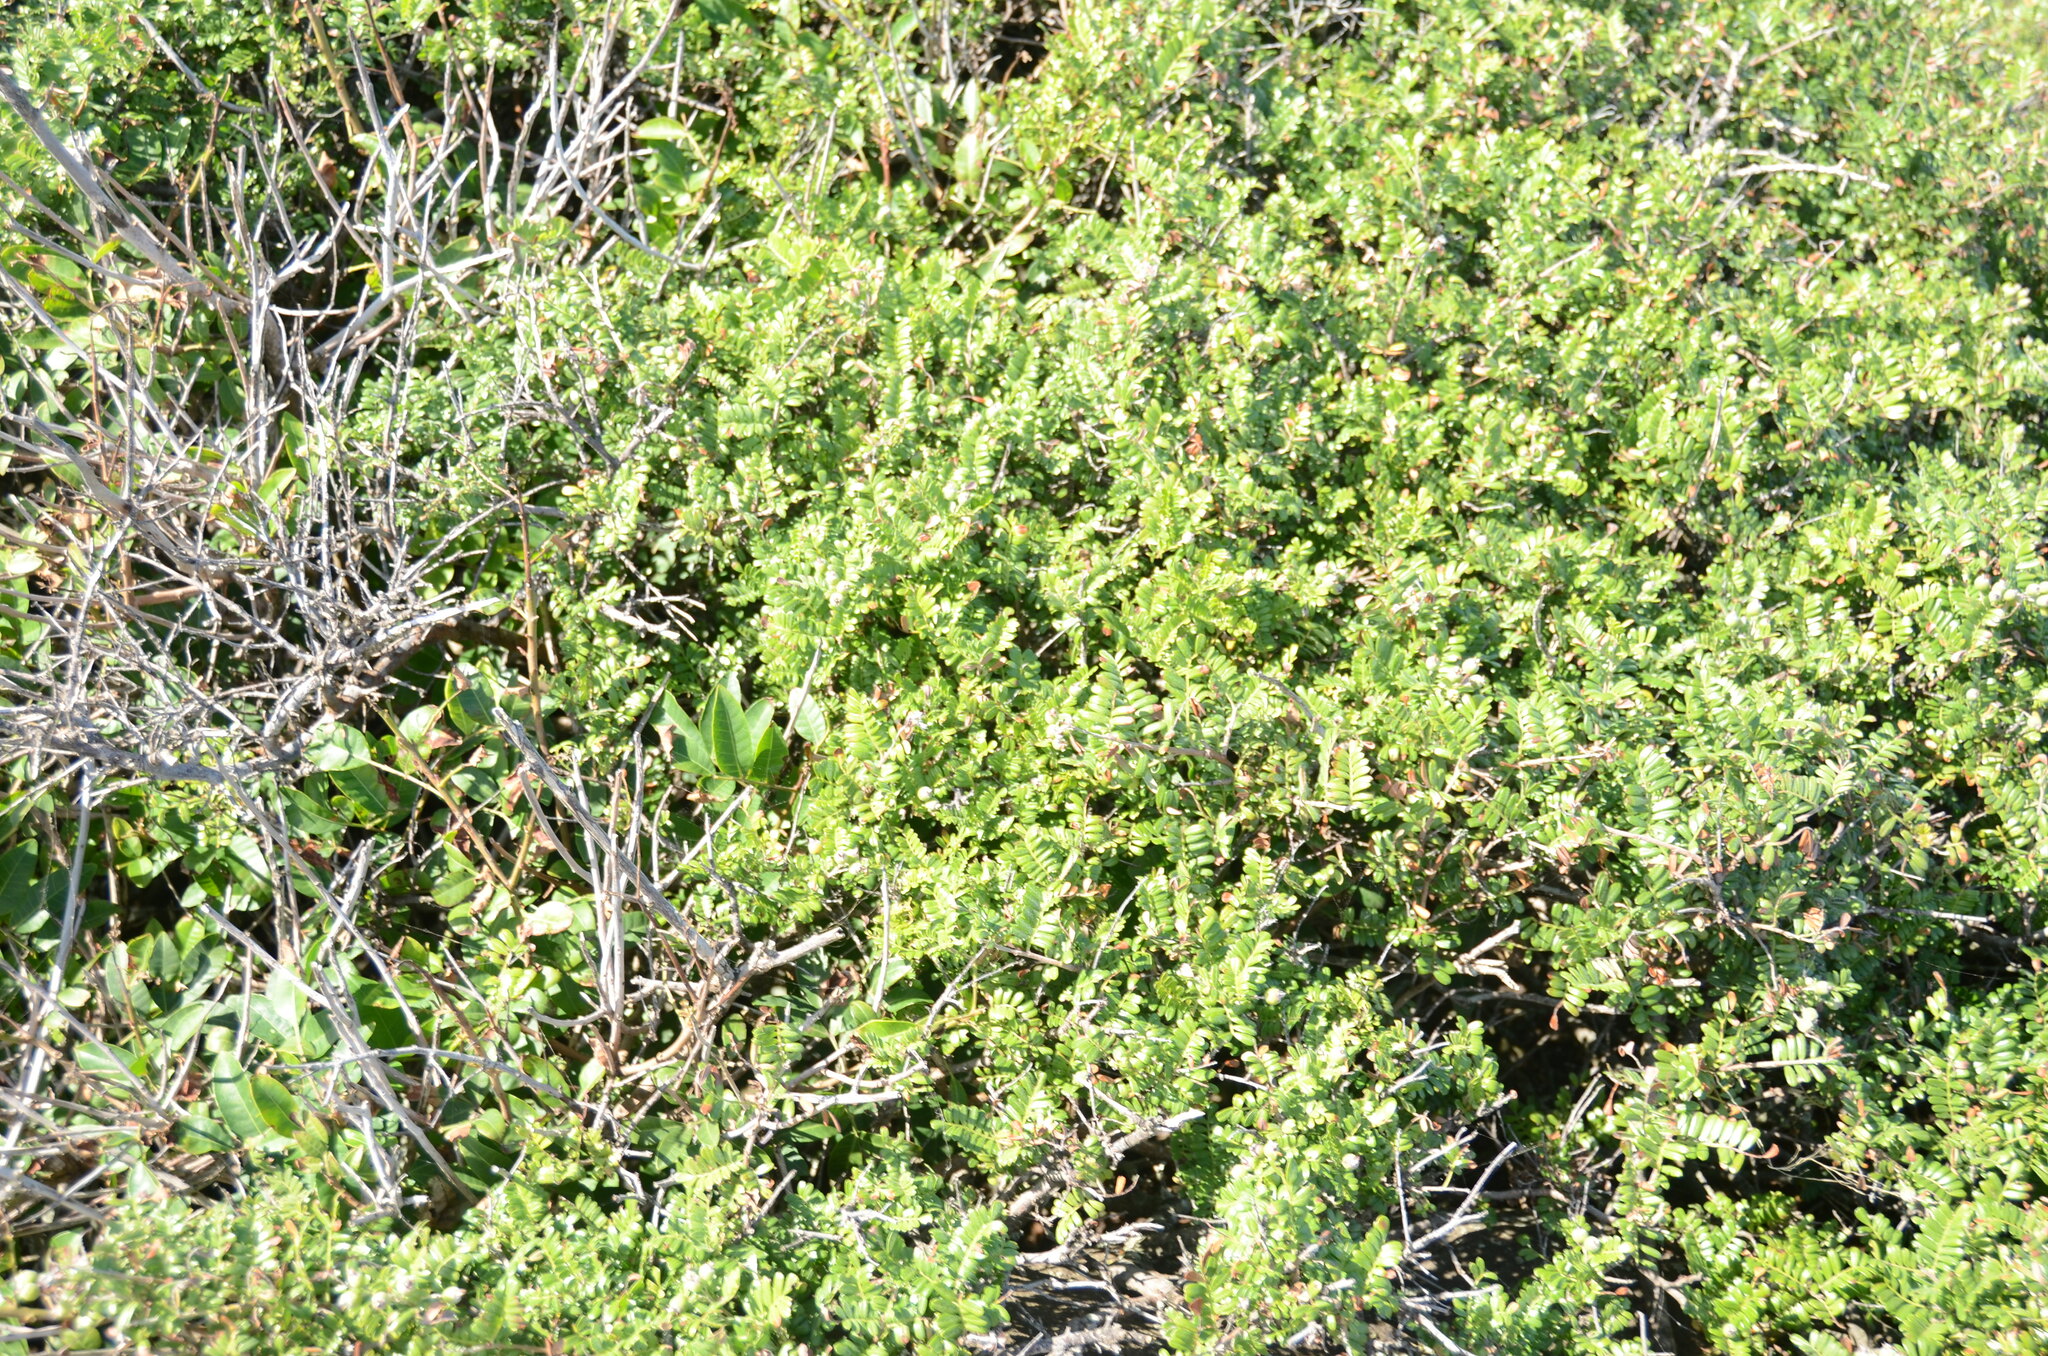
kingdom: Plantae
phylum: Tracheophyta
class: Magnoliopsida
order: Rosales
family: Rosaceae
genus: Osteomeles
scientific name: Osteomeles anthyllidifolia
